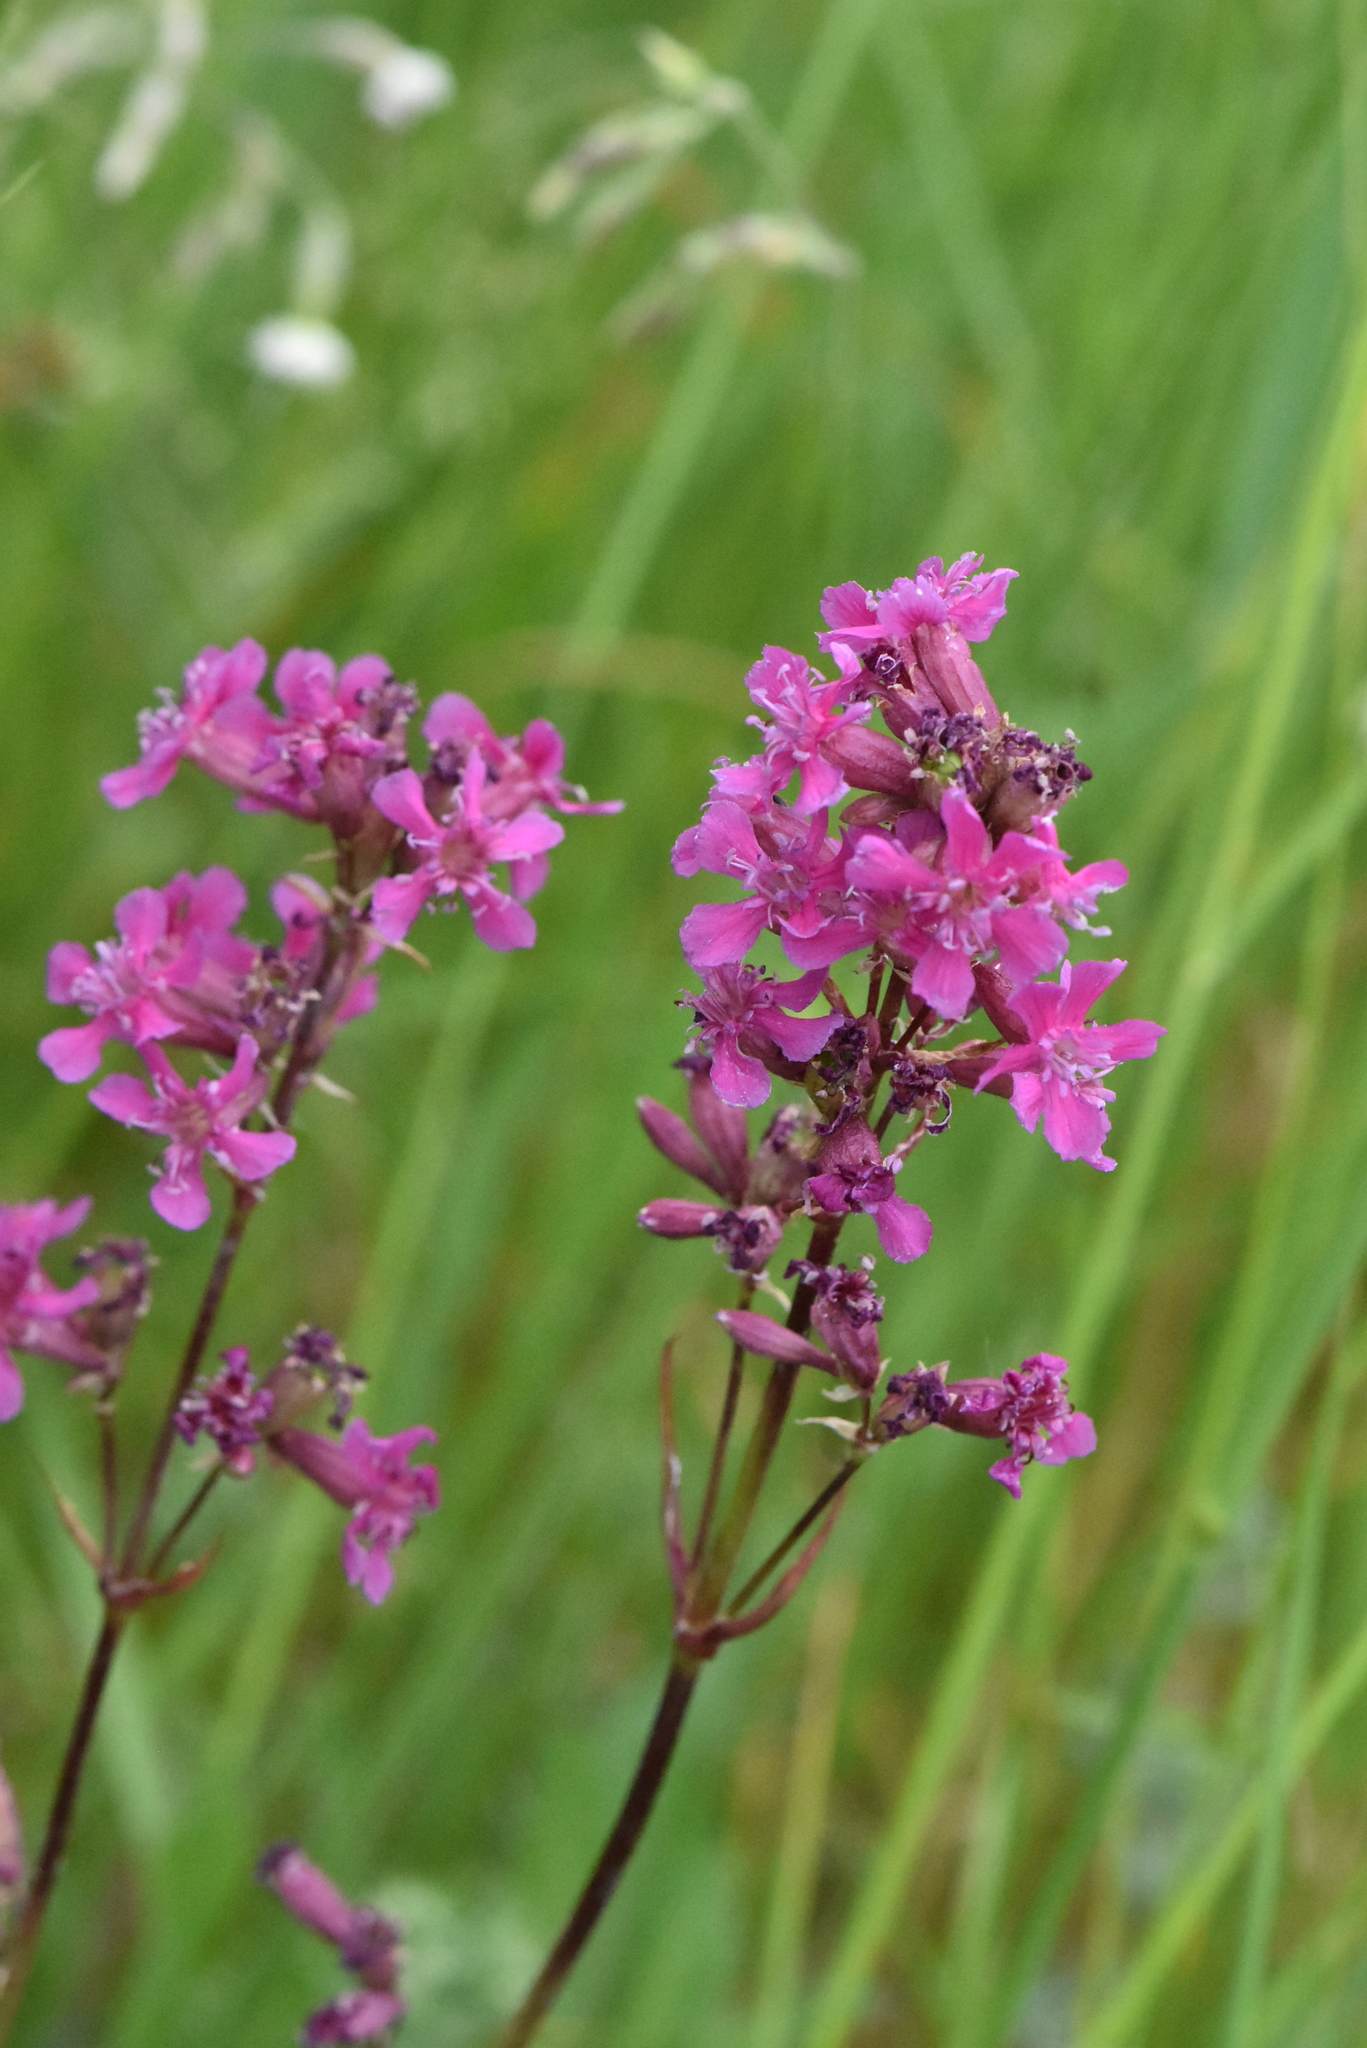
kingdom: Plantae
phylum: Tracheophyta
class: Magnoliopsida
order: Caryophyllales
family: Caryophyllaceae
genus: Viscaria
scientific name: Viscaria vulgaris
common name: Clammy campion
